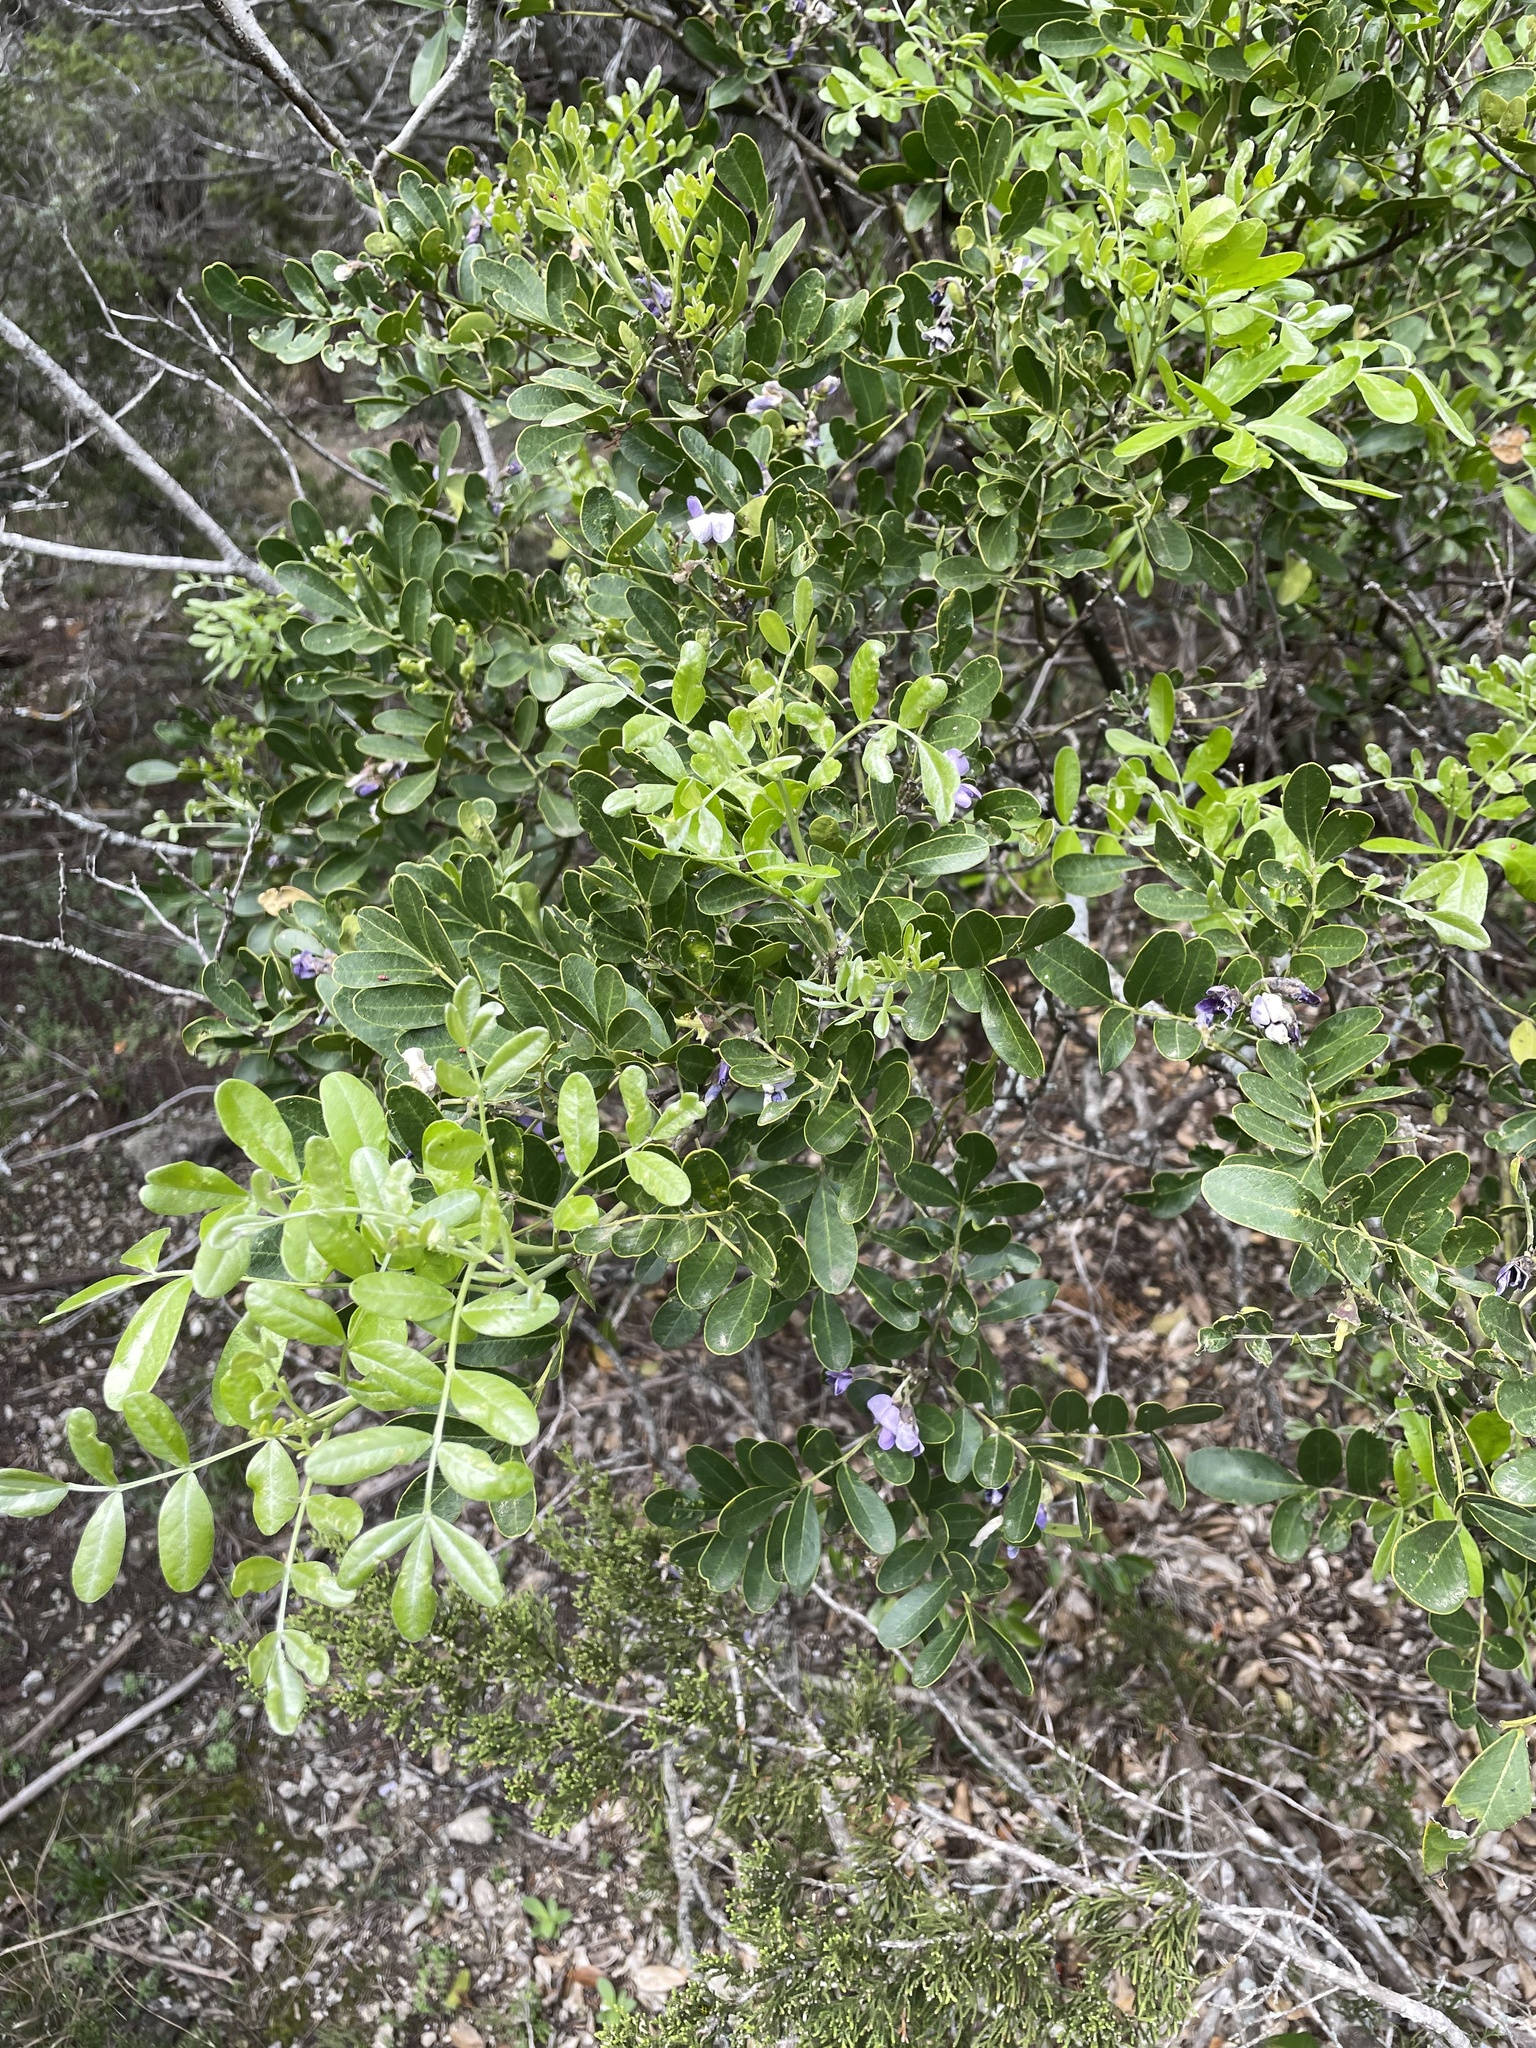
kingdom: Plantae
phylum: Tracheophyta
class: Magnoliopsida
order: Fabales
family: Fabaceae
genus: Dermatophyllum
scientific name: Dermatophyllum secundiflorum
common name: Texas-mountain-laurel
